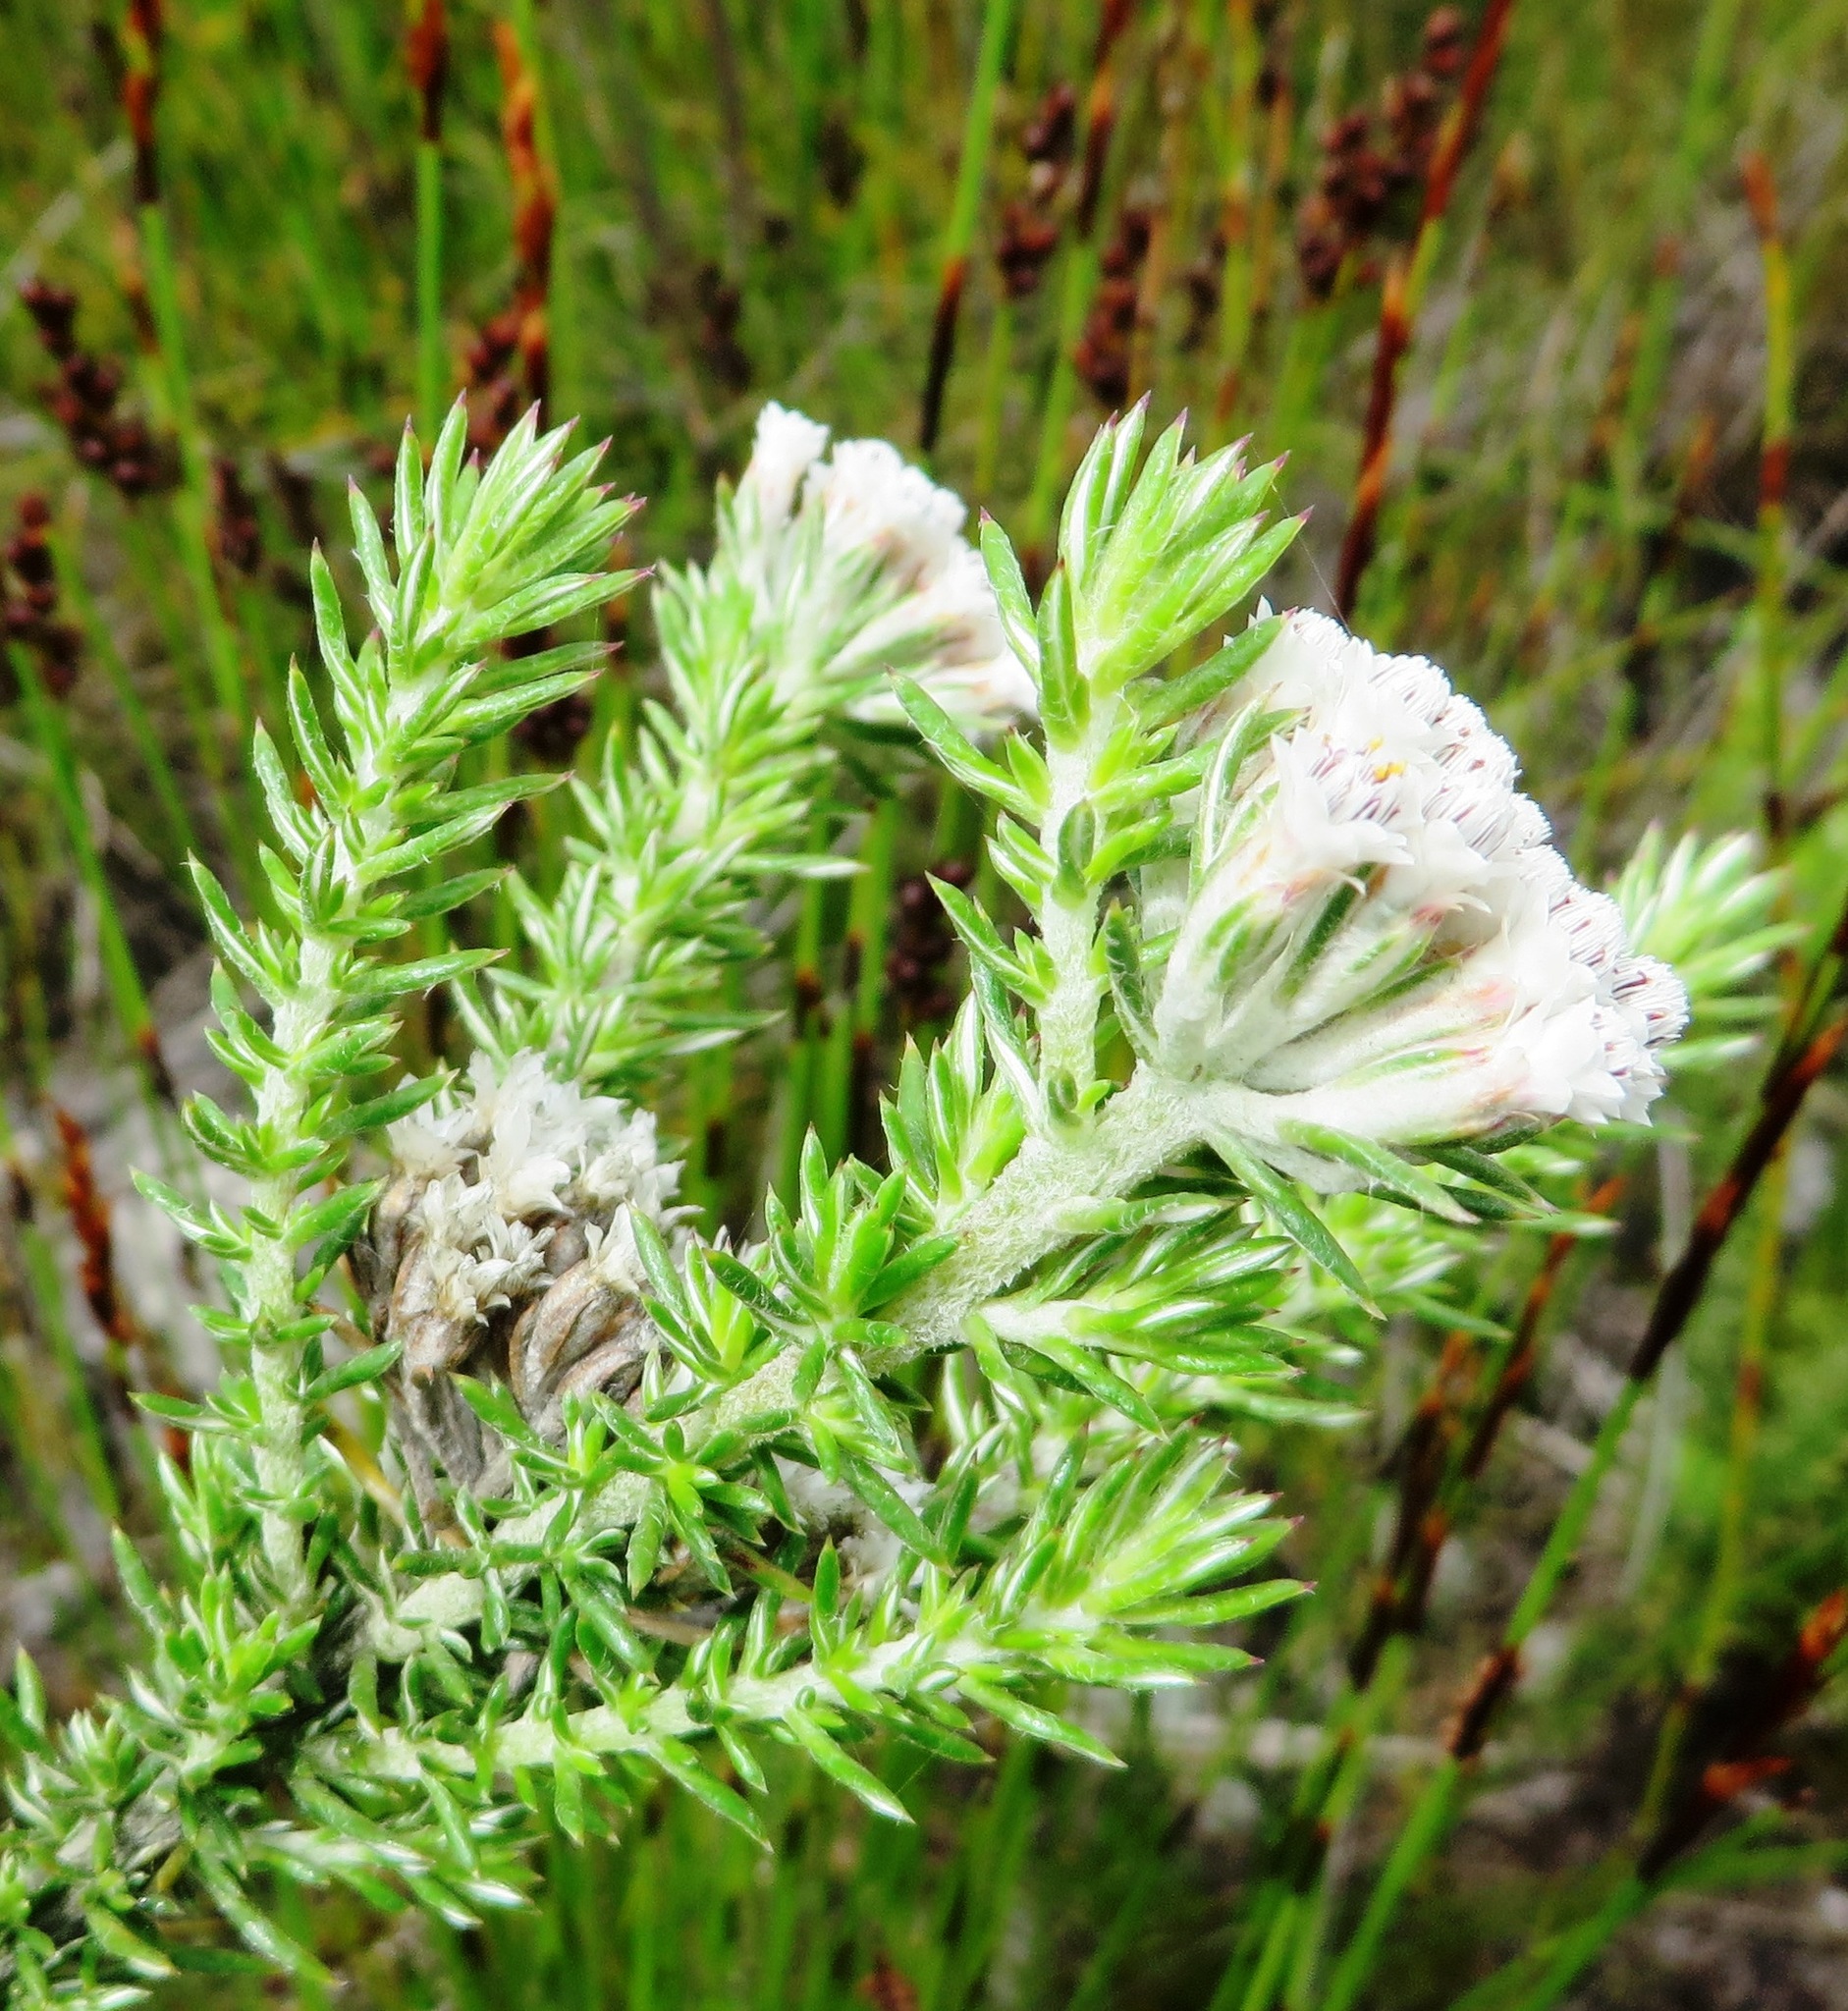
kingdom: Plantae
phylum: Tracheophyta
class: Magnoliopsida
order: Asterales
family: Asteraceae
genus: Metalasia
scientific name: Metalasia lichtensteinii
